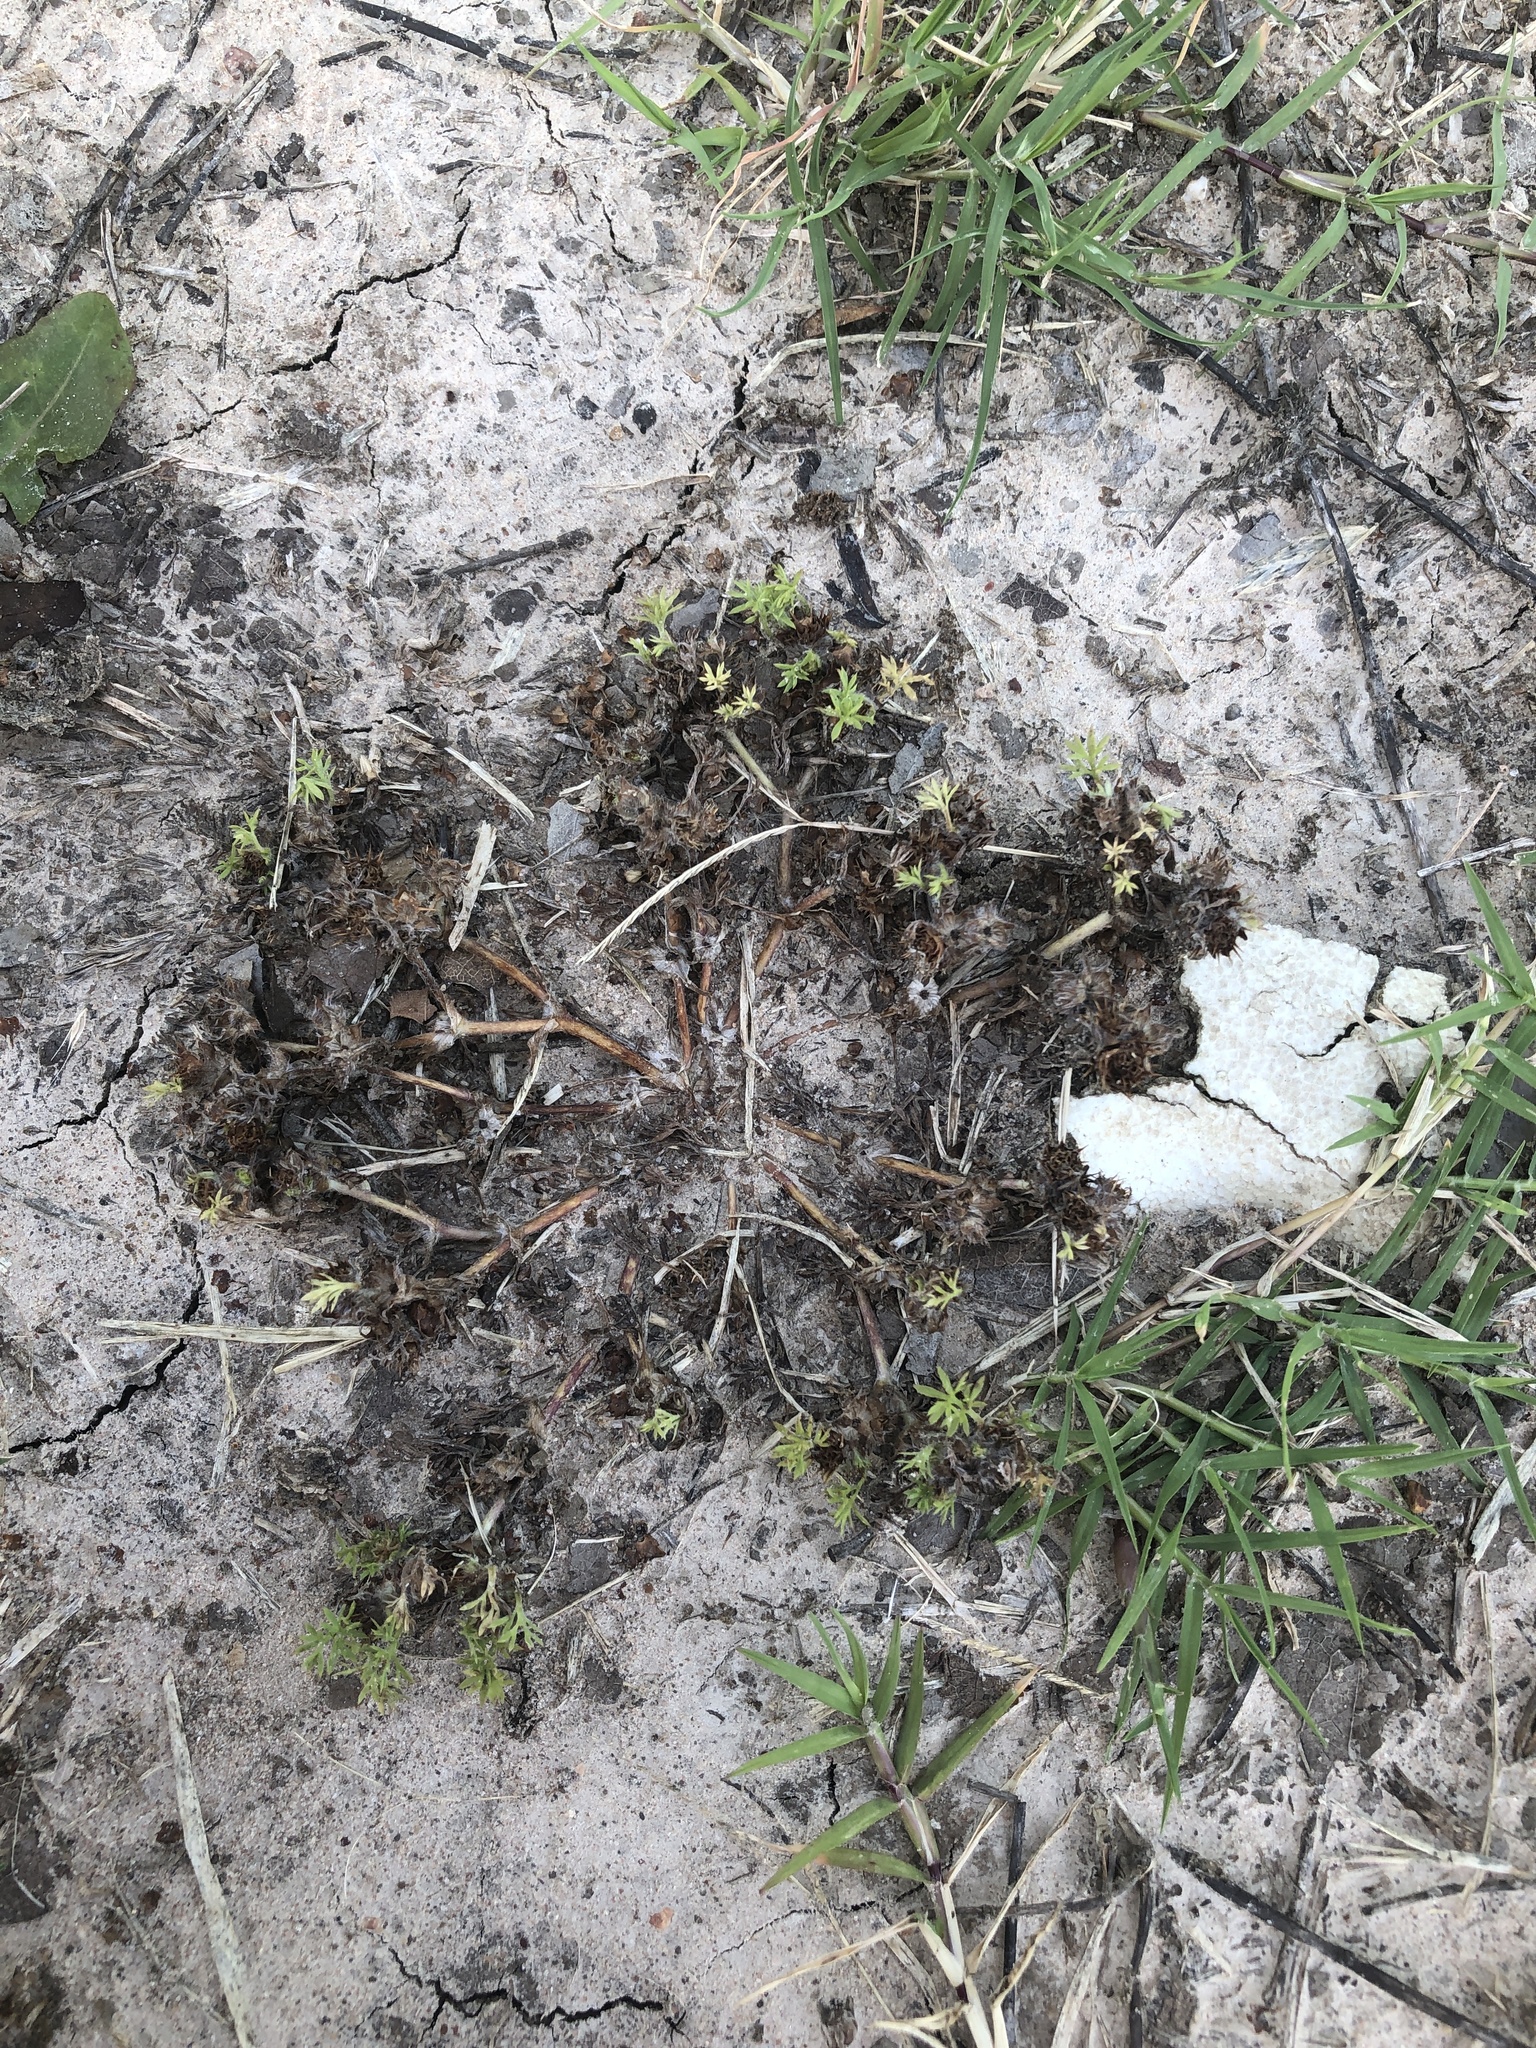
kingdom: Plantae
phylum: Tracheophyta
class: Magnoliopsida
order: Asterales
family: Asteraceae
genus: Soliva
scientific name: Soliva sessilis
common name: Field burrweed
